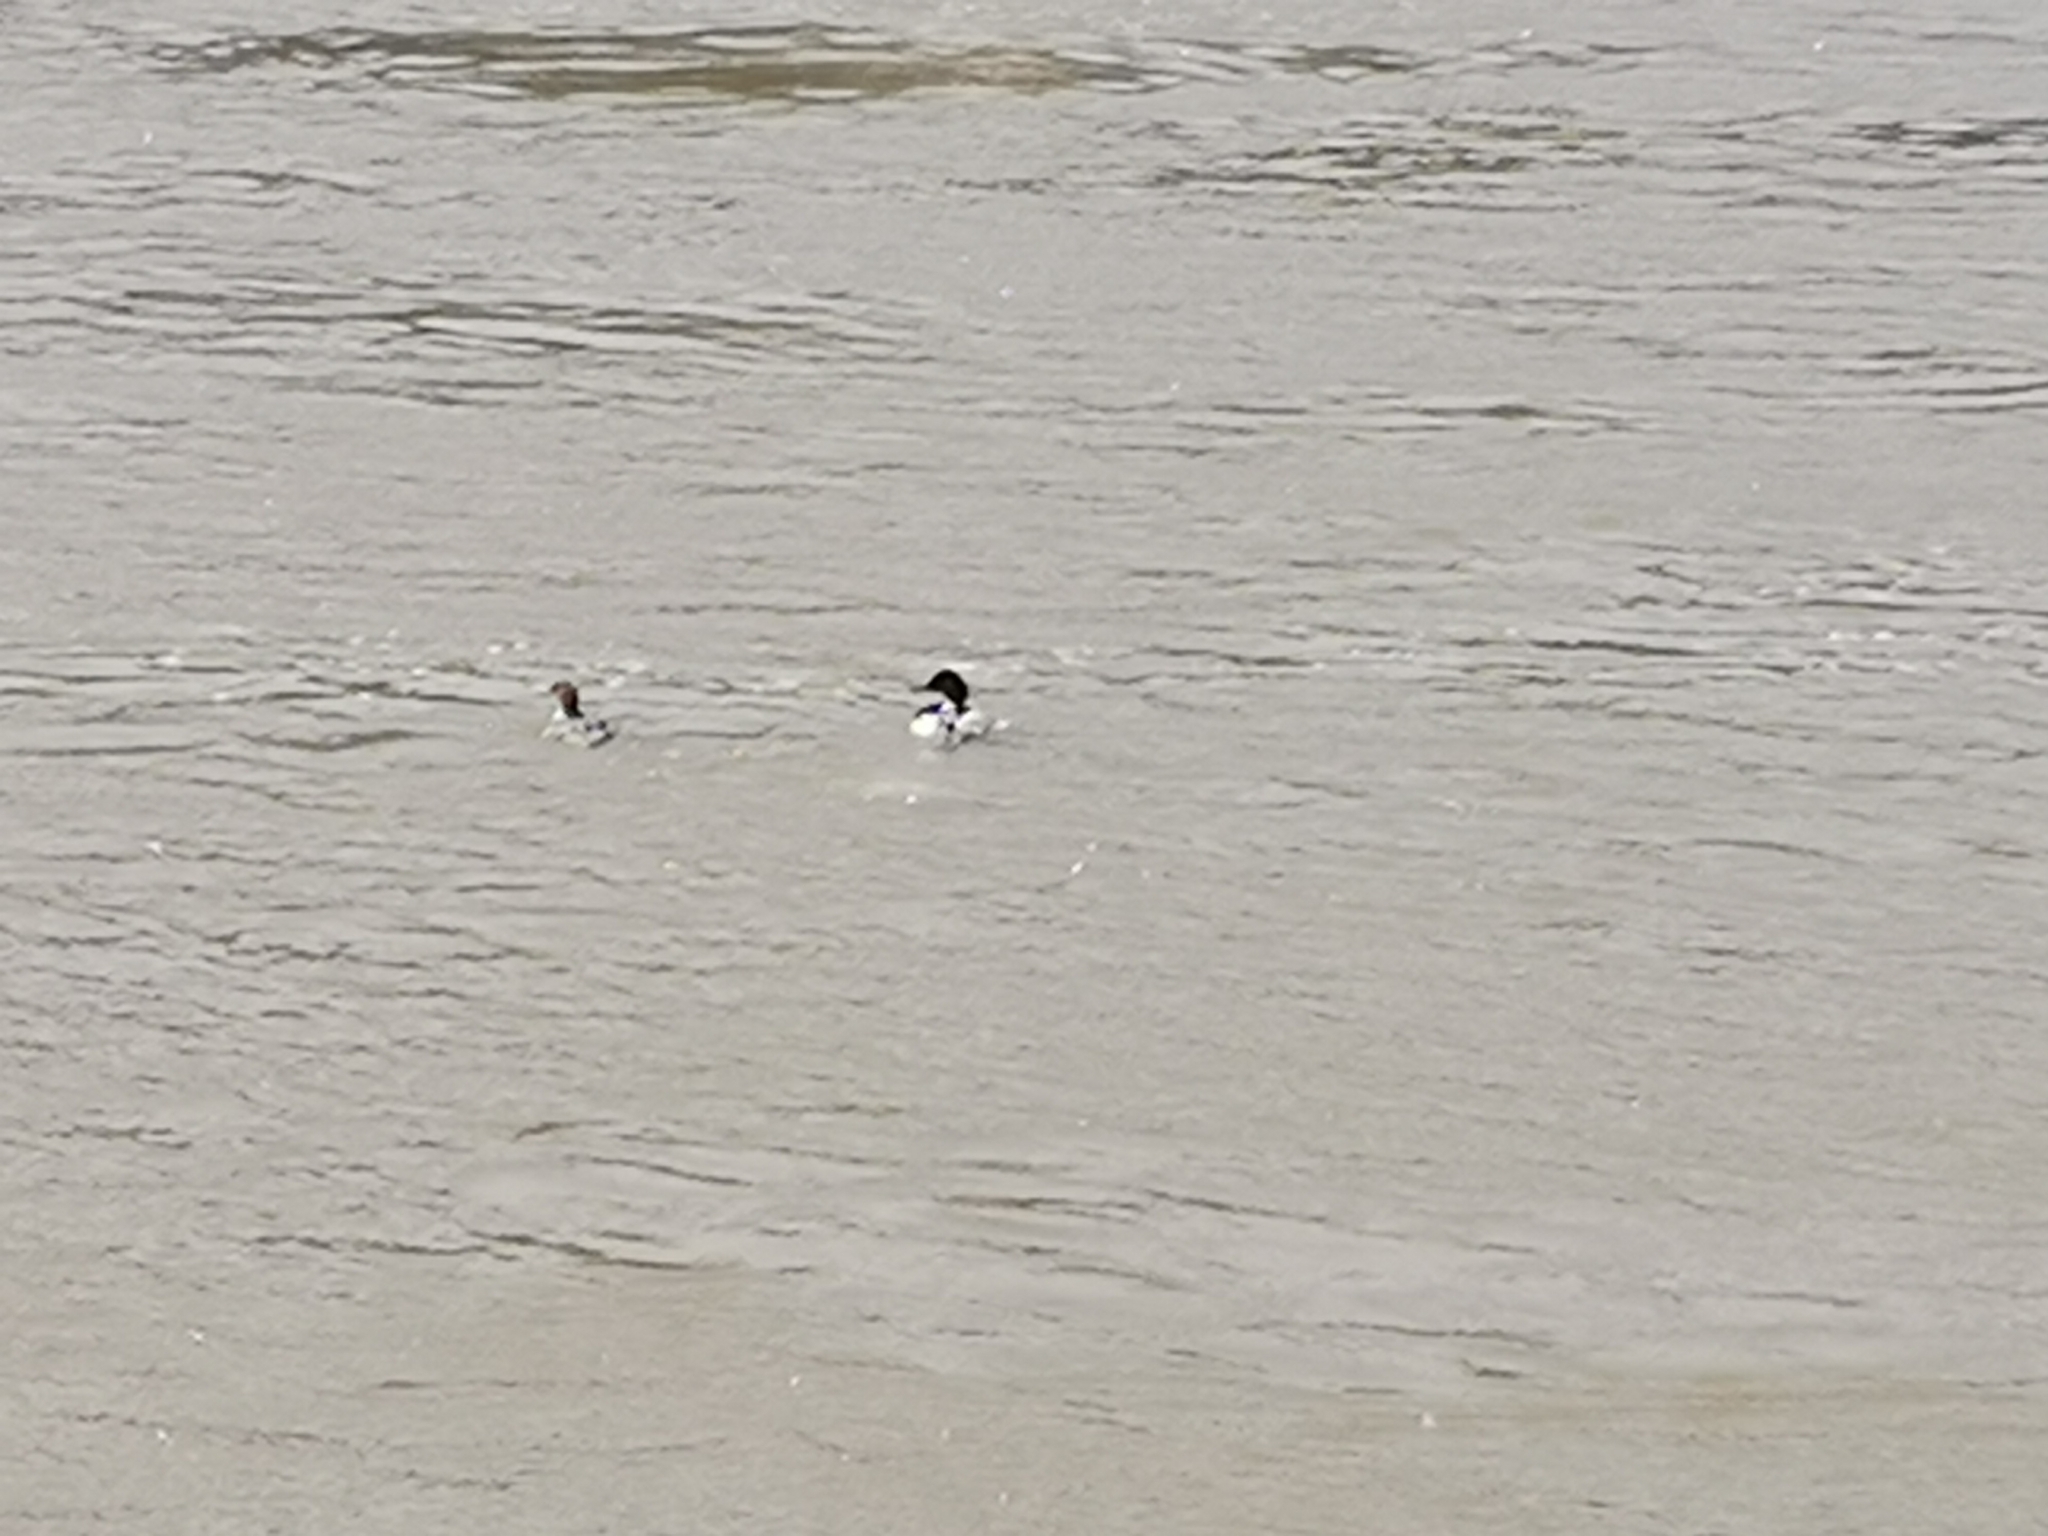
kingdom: Animalia
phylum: Chordata
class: Aves
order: Anseriformes
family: Anatidae
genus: Mergus
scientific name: Mergus merganser
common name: Common merganser
